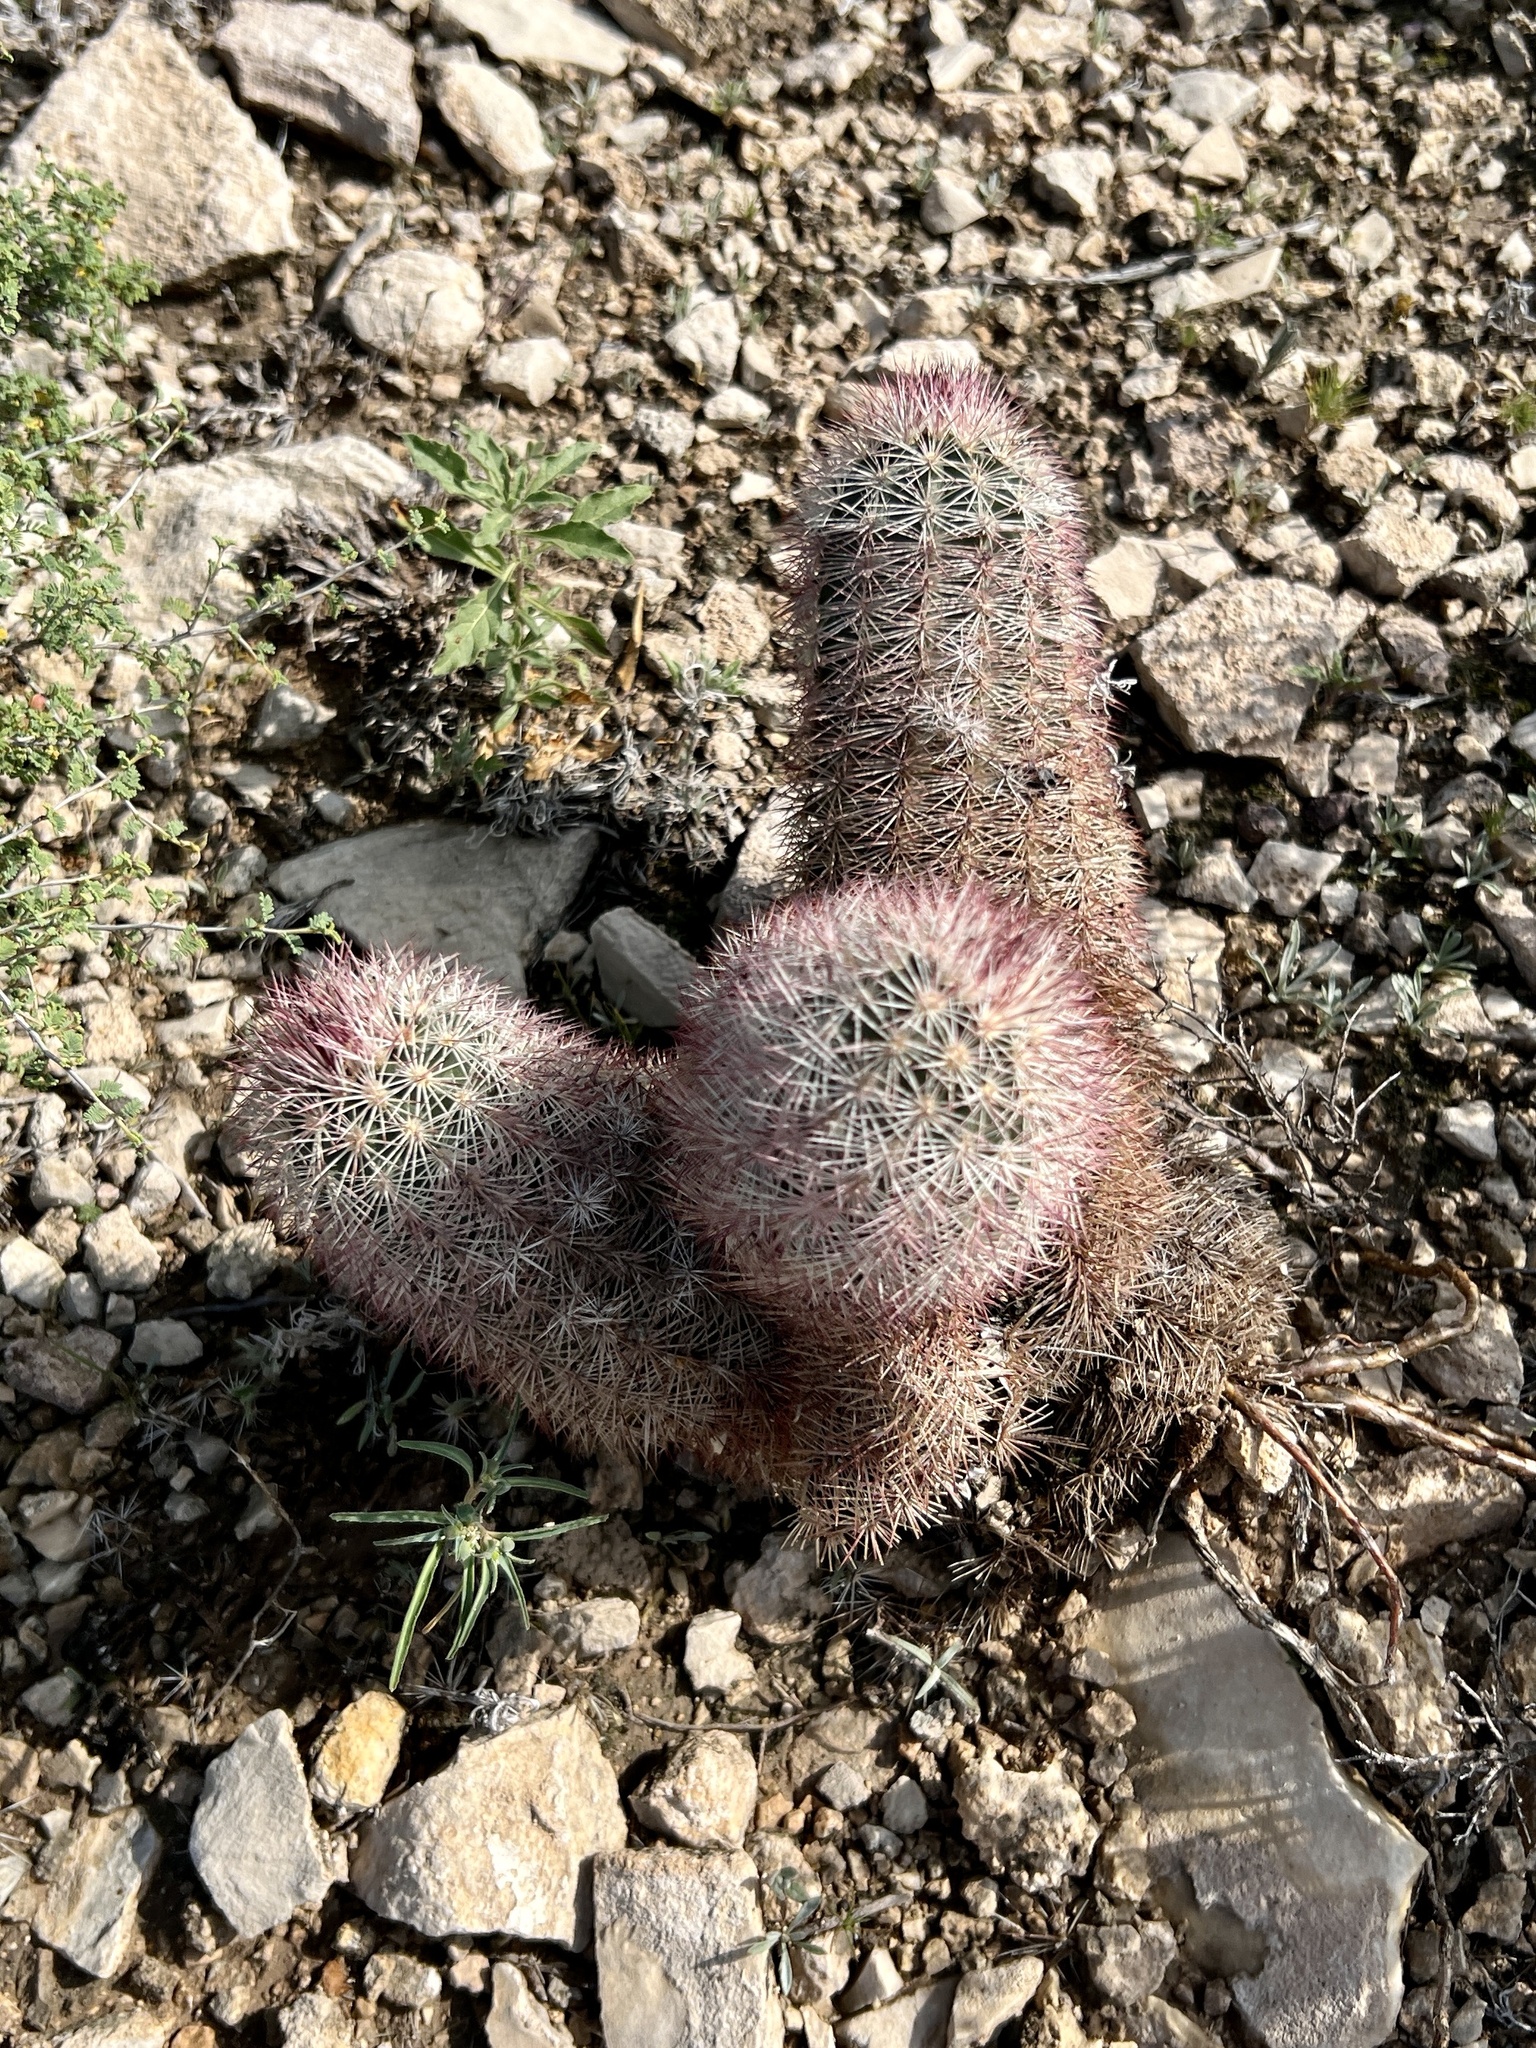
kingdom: Plantae
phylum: Tracheophyta
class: Magnoliopsida
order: Caryophyllales
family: Cactaceae
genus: Echinocereus
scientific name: Echinocereus dasyacanthus
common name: Spiny hedgehog cactus
